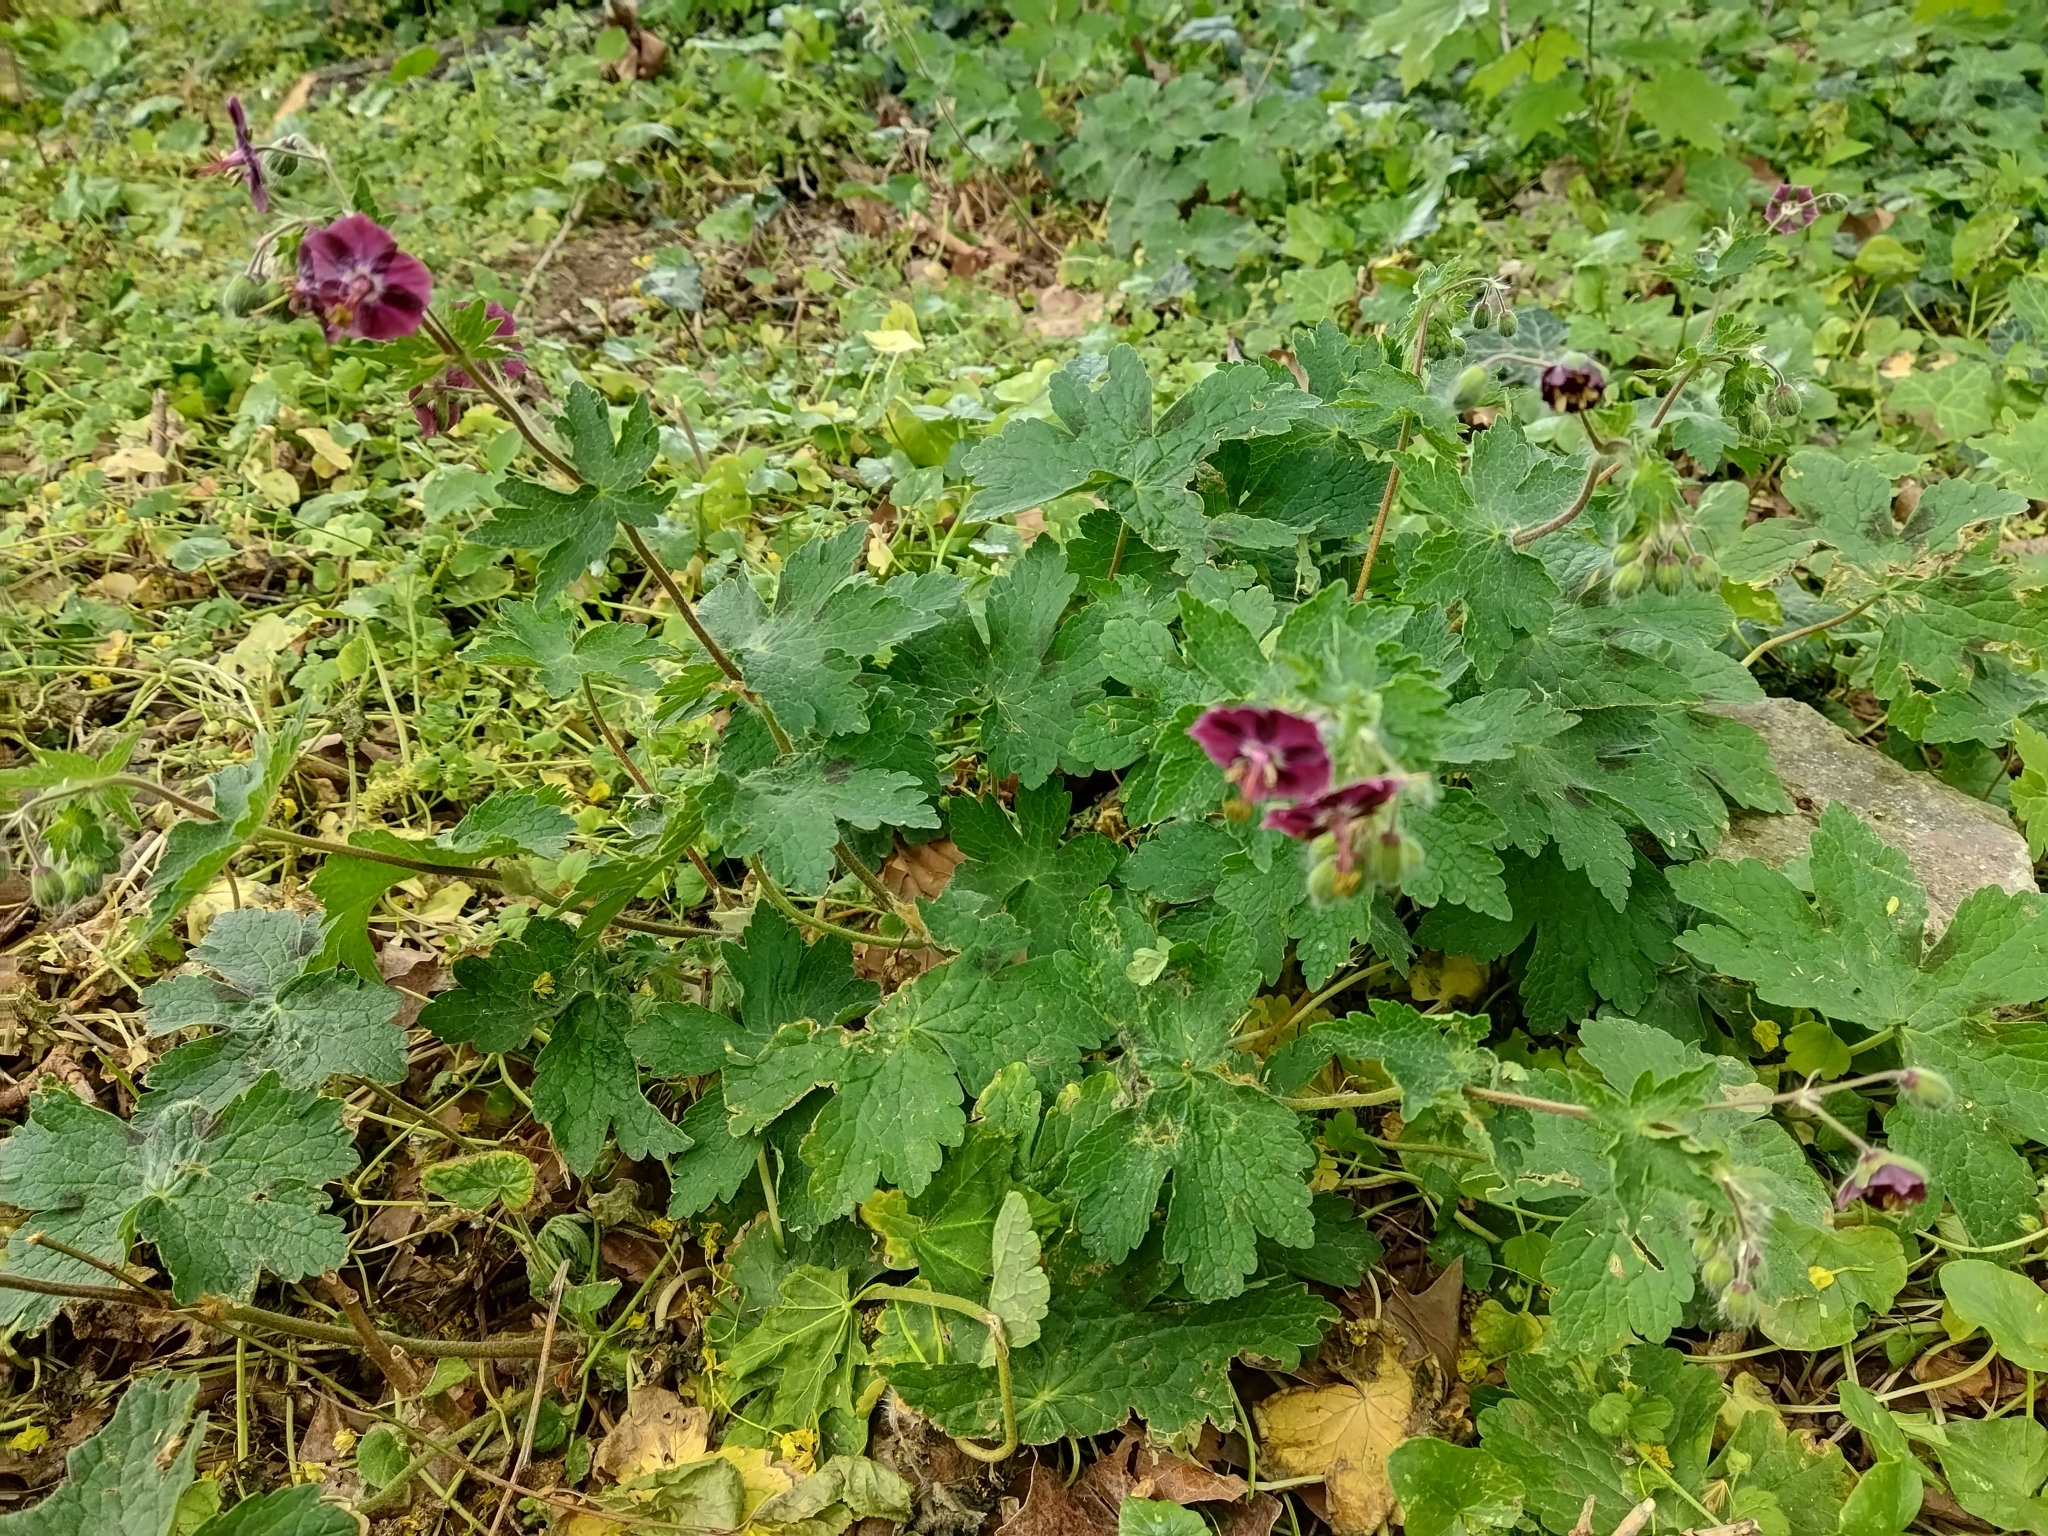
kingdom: Plantae
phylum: Tracheophyta
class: Magnoliopsida
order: Geraniales
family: Geraniaceae
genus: Geranium
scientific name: Geranium phaeum
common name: Dusky crane's-bill
